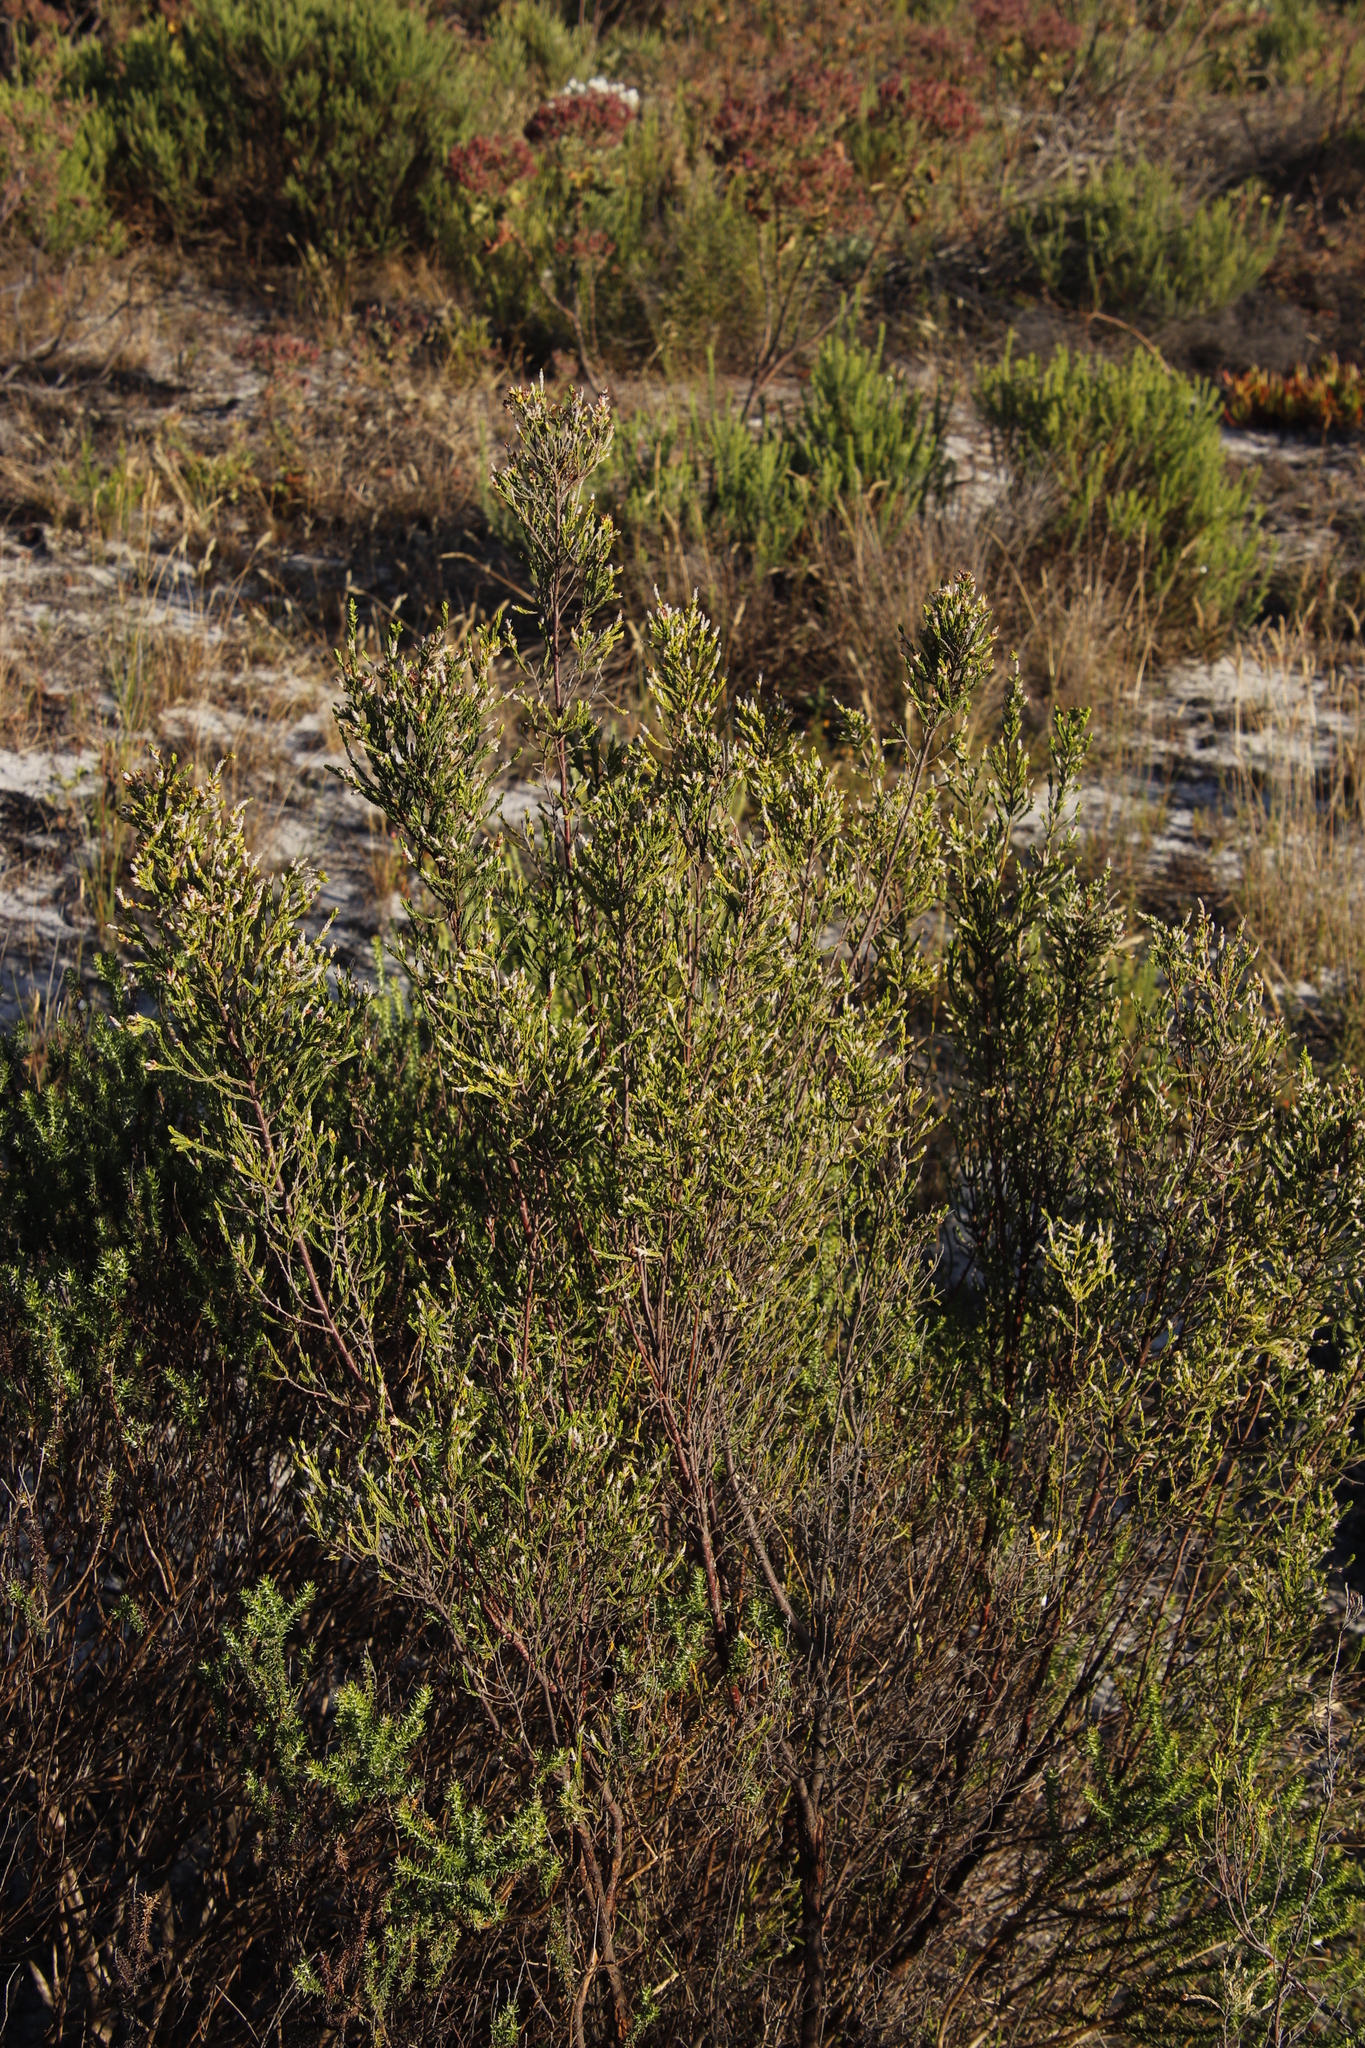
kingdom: Plantae
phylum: Tracheophyta
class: Magnoliopsida
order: Malvales
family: Thymelaeaceae
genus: Passerina
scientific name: Passerina corymbosa
